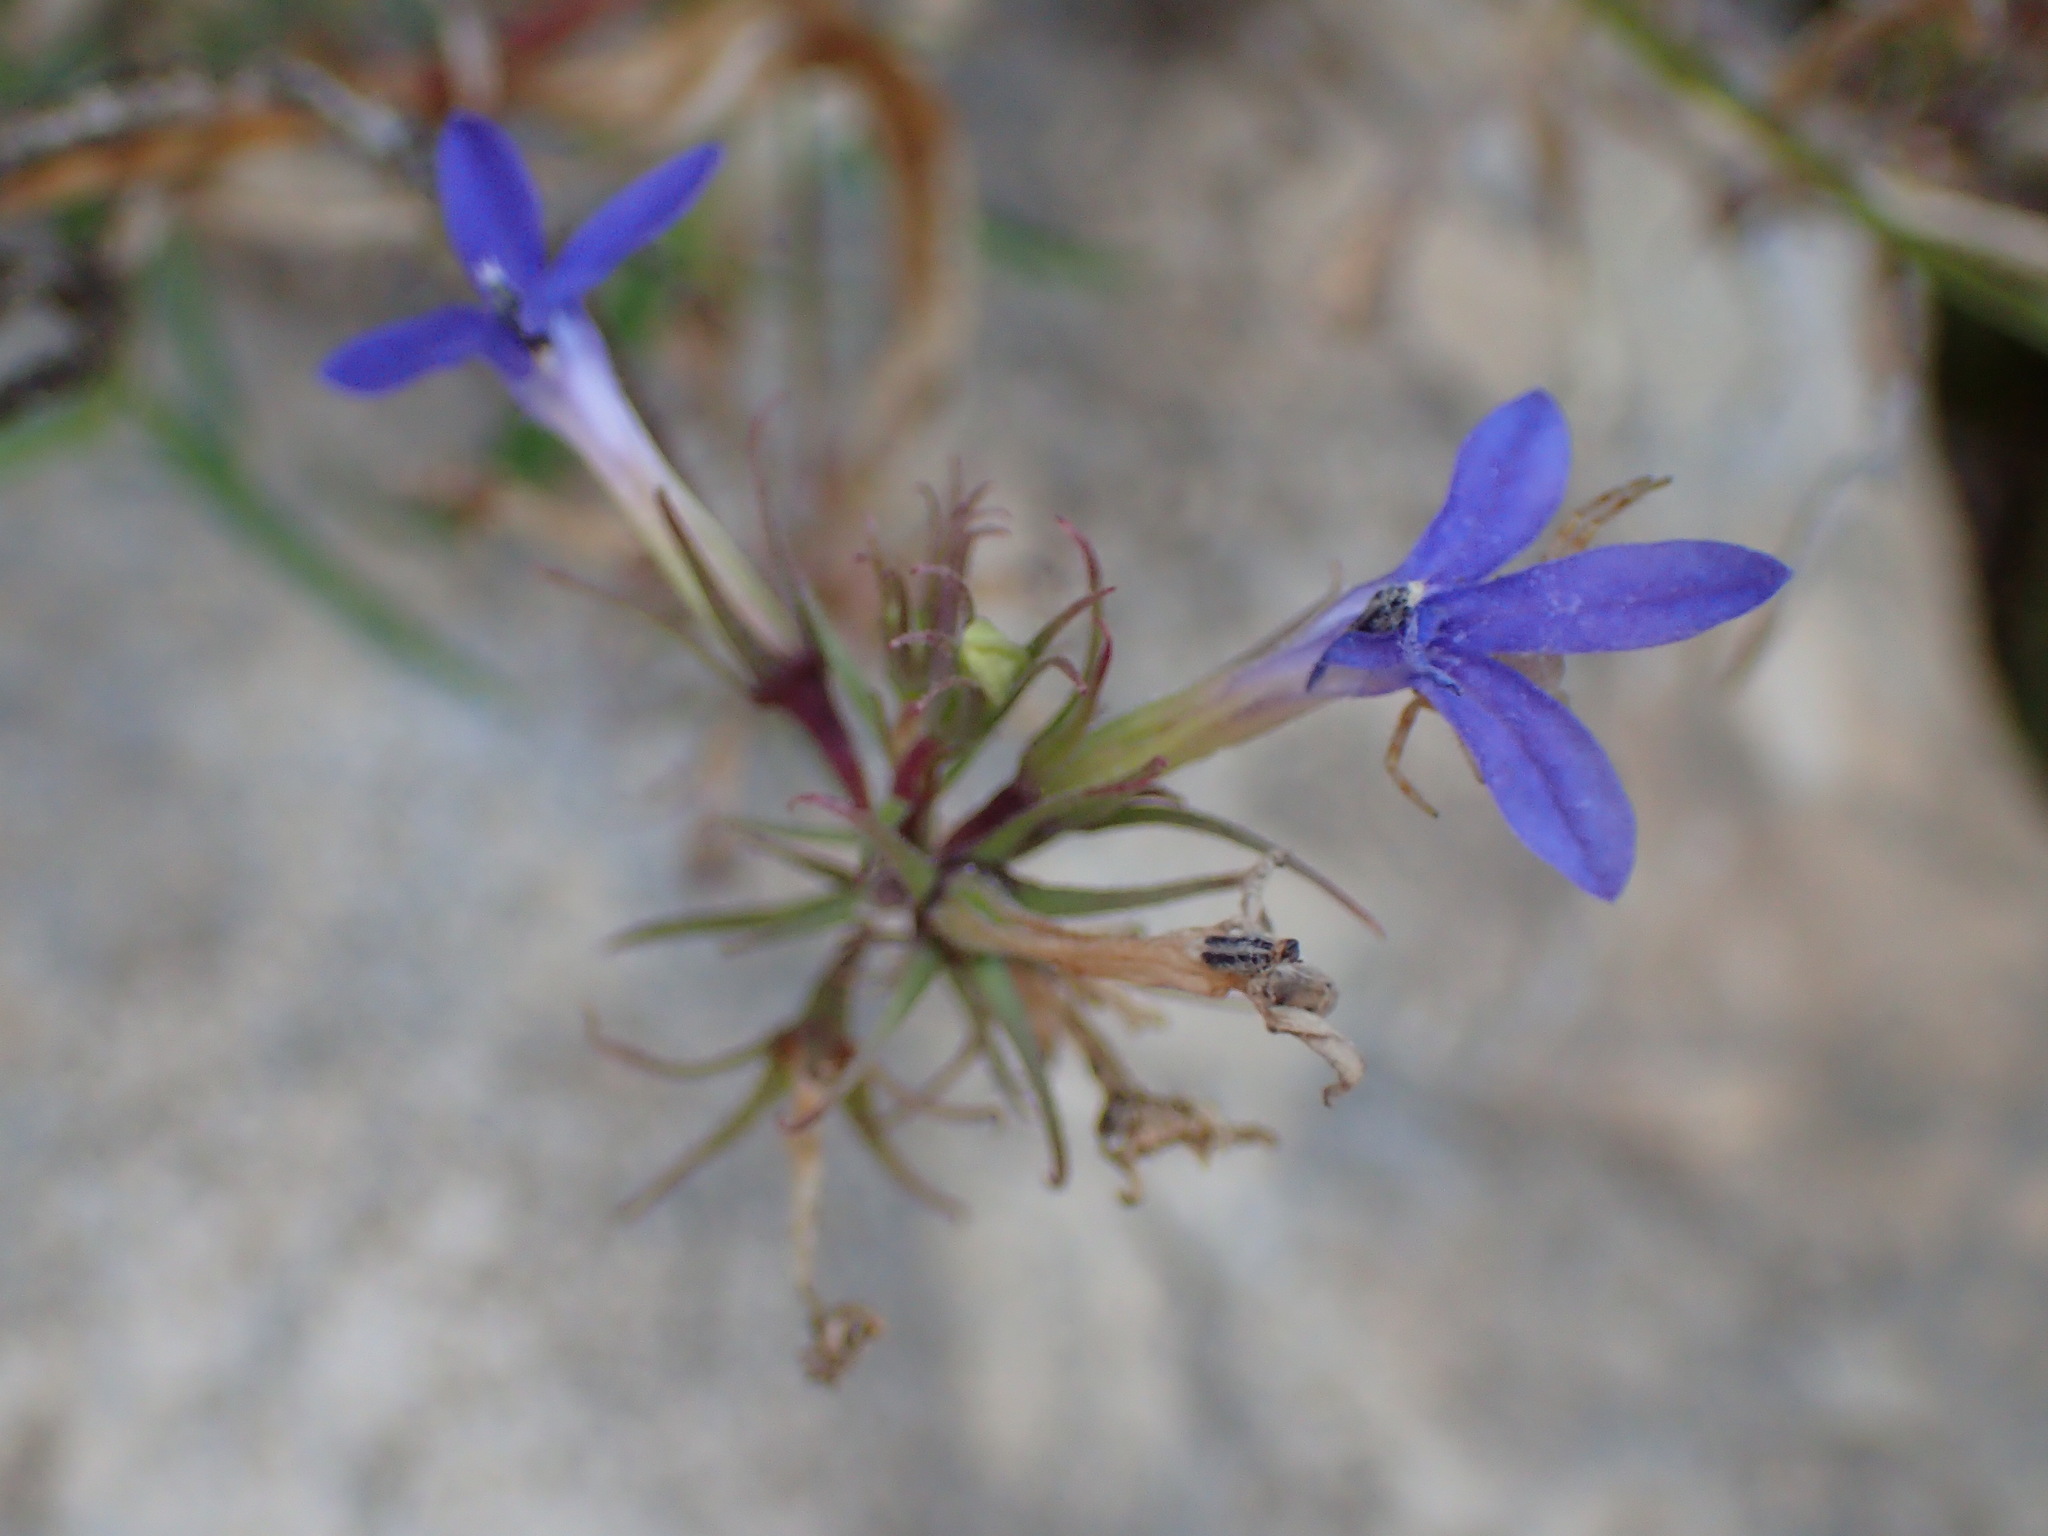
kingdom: Plantae
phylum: Tracheophyta
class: Magnoliopsida
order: Asterales
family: Campanulaceae
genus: Palmerella
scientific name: Palmerella debilis
